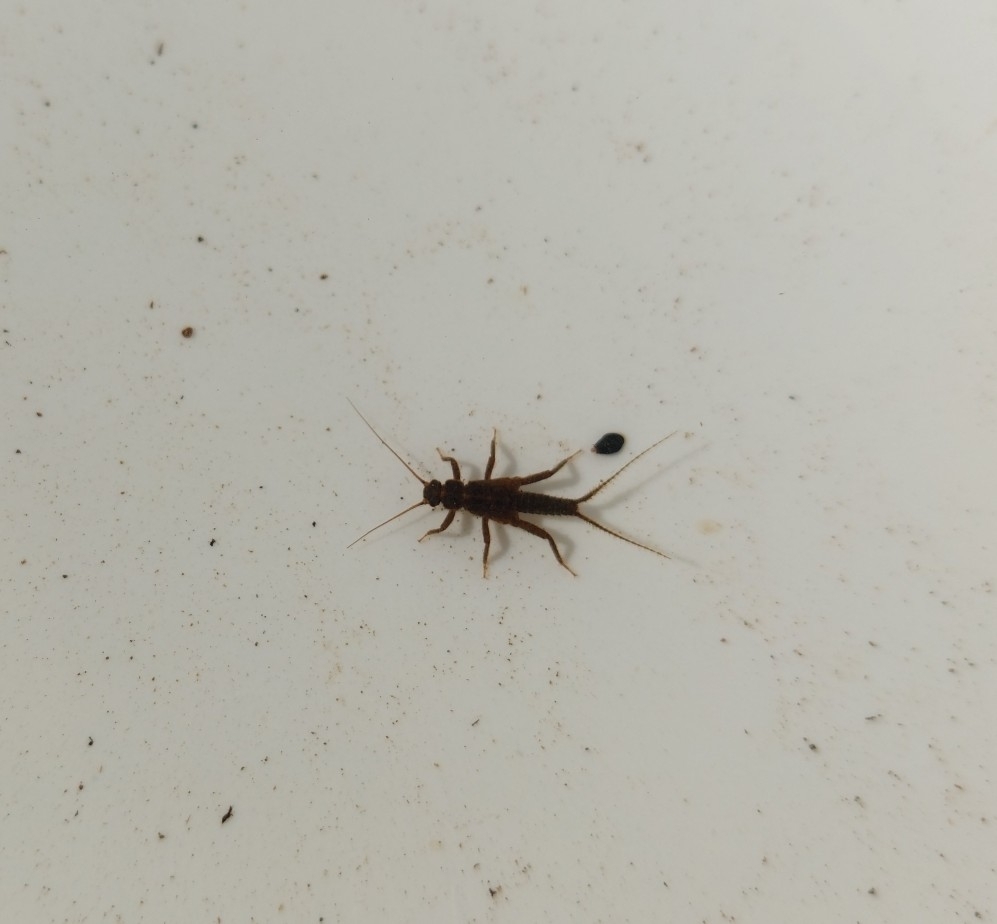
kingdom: Animalia
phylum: Arthropoda
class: Insecta
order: Plecoptera
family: Nemouridae
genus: Nemoura
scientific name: Nemoura avicularis
